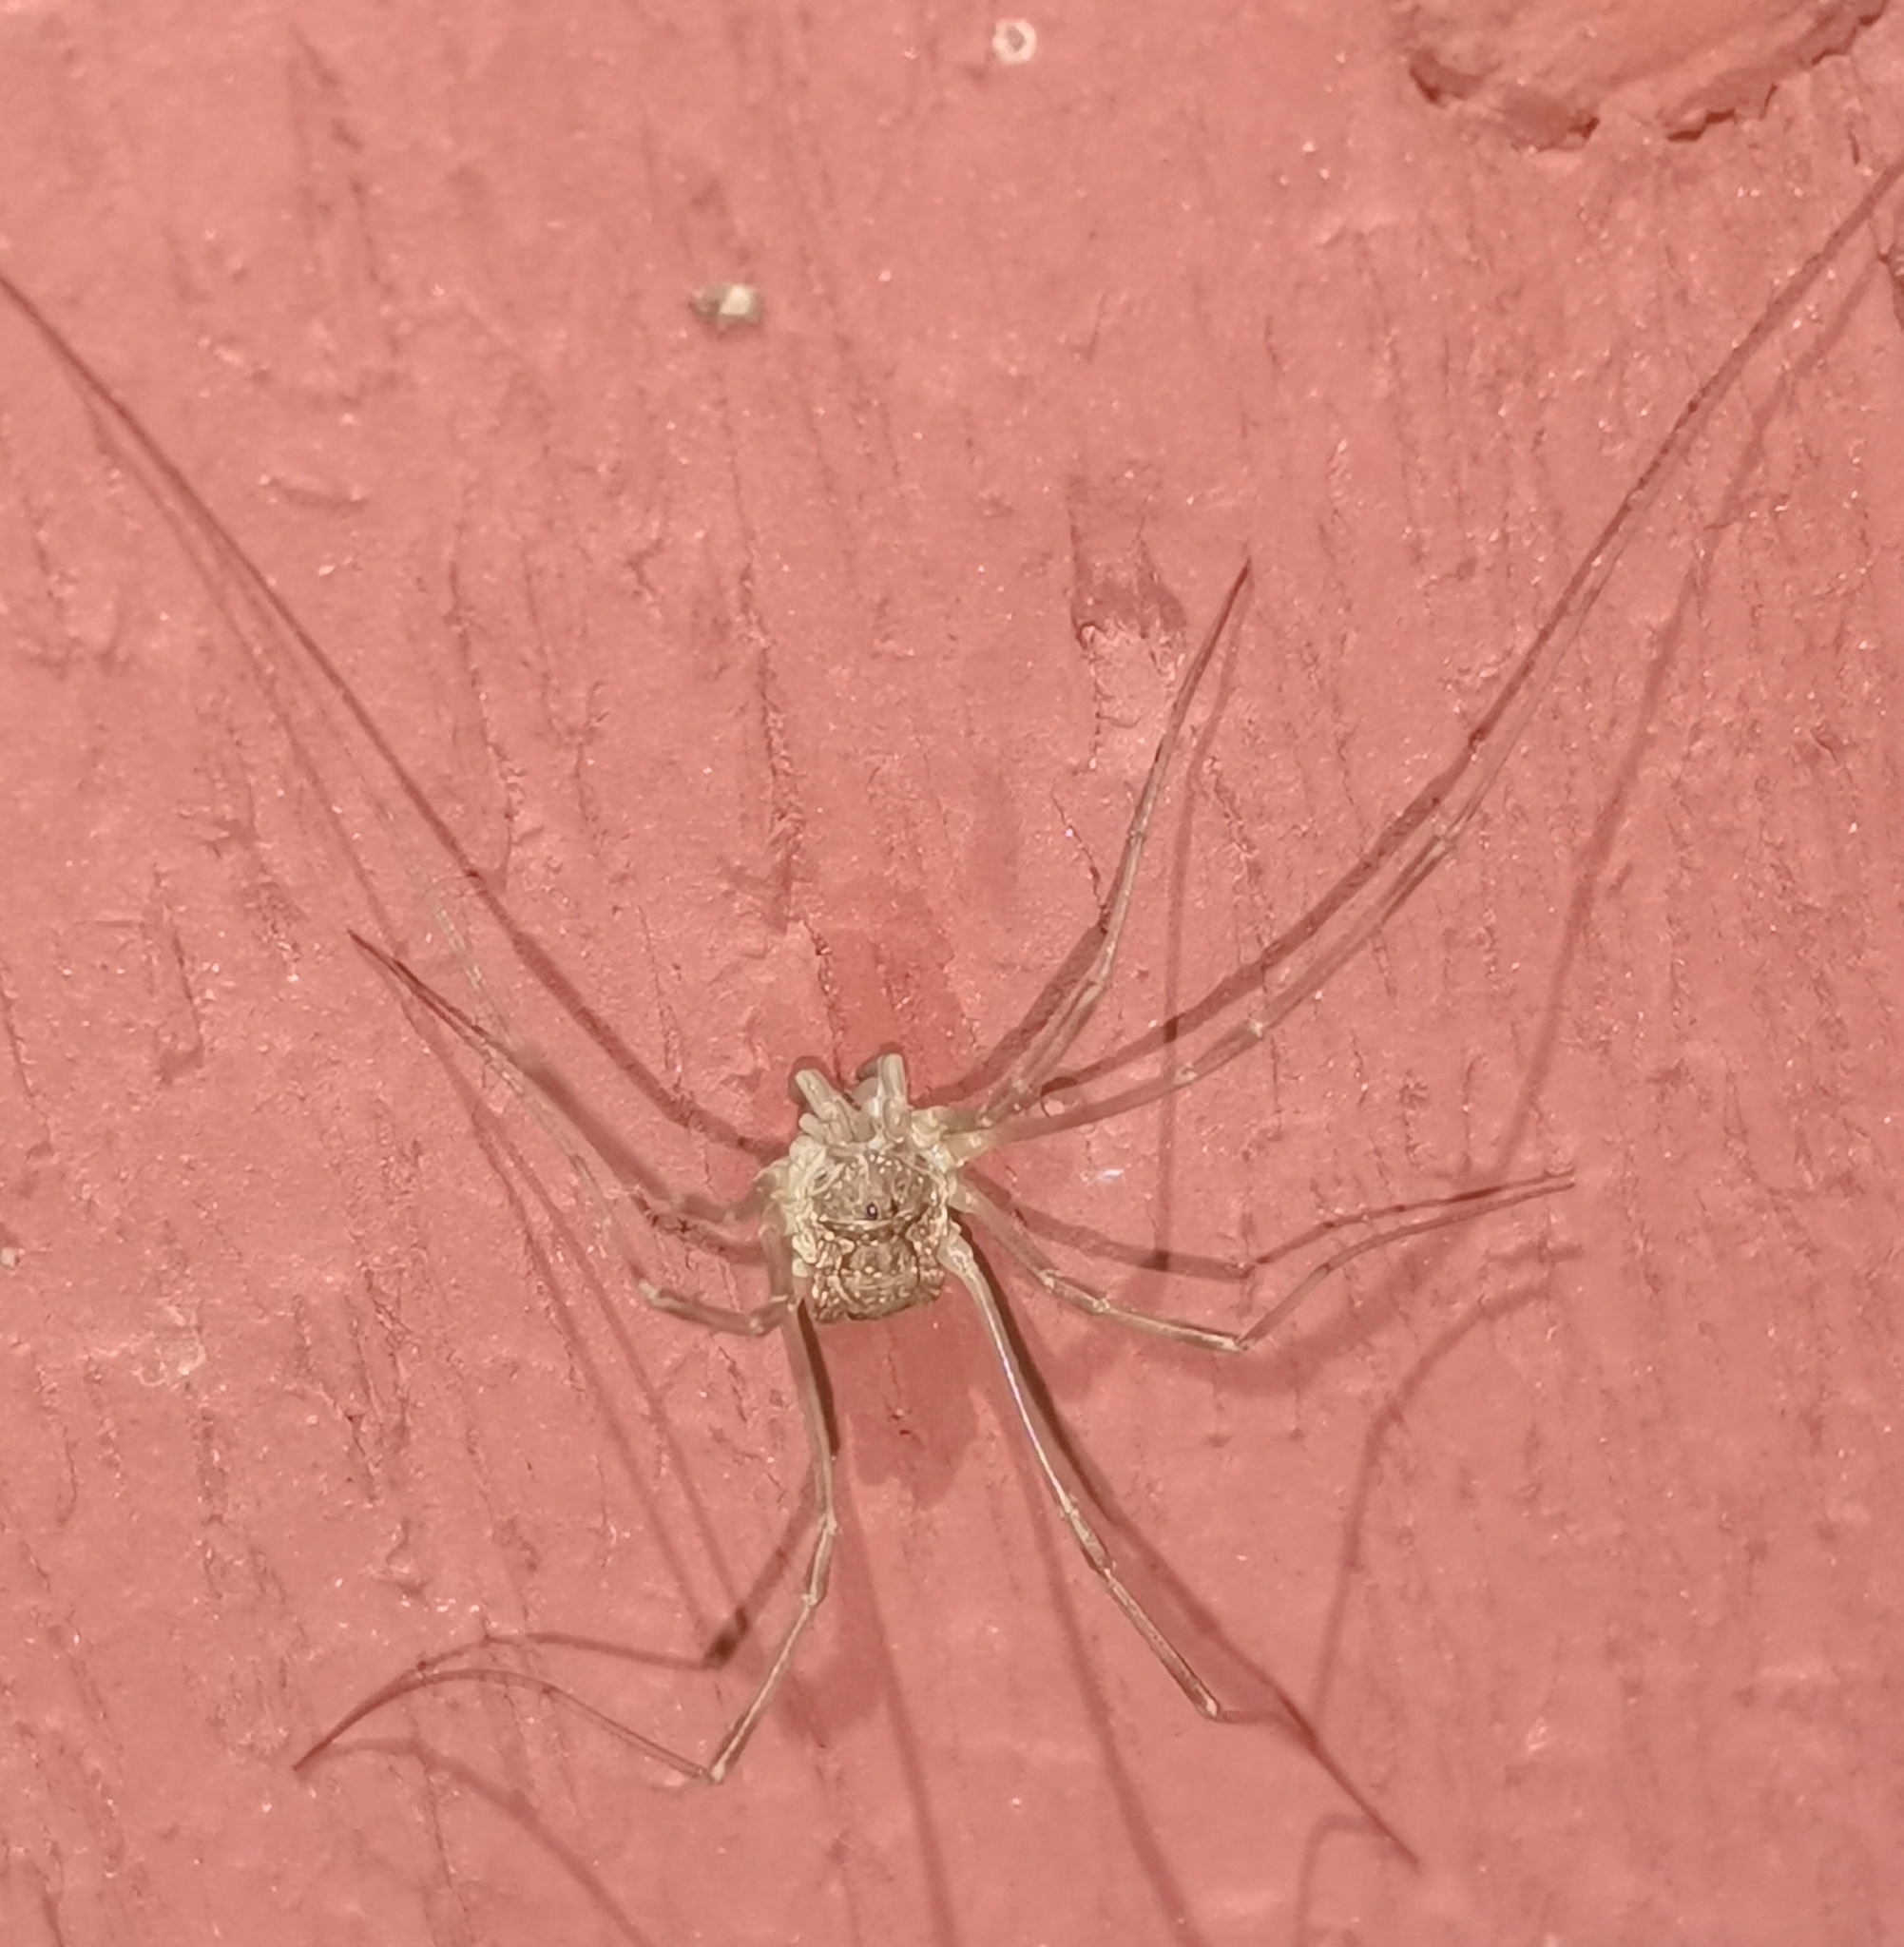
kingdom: Animalia
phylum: Arthropoda
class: Arachnida
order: Opiliones
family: Phalangiidae
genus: Mitopus
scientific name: Mitopus morio
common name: Saddleback harvestman
